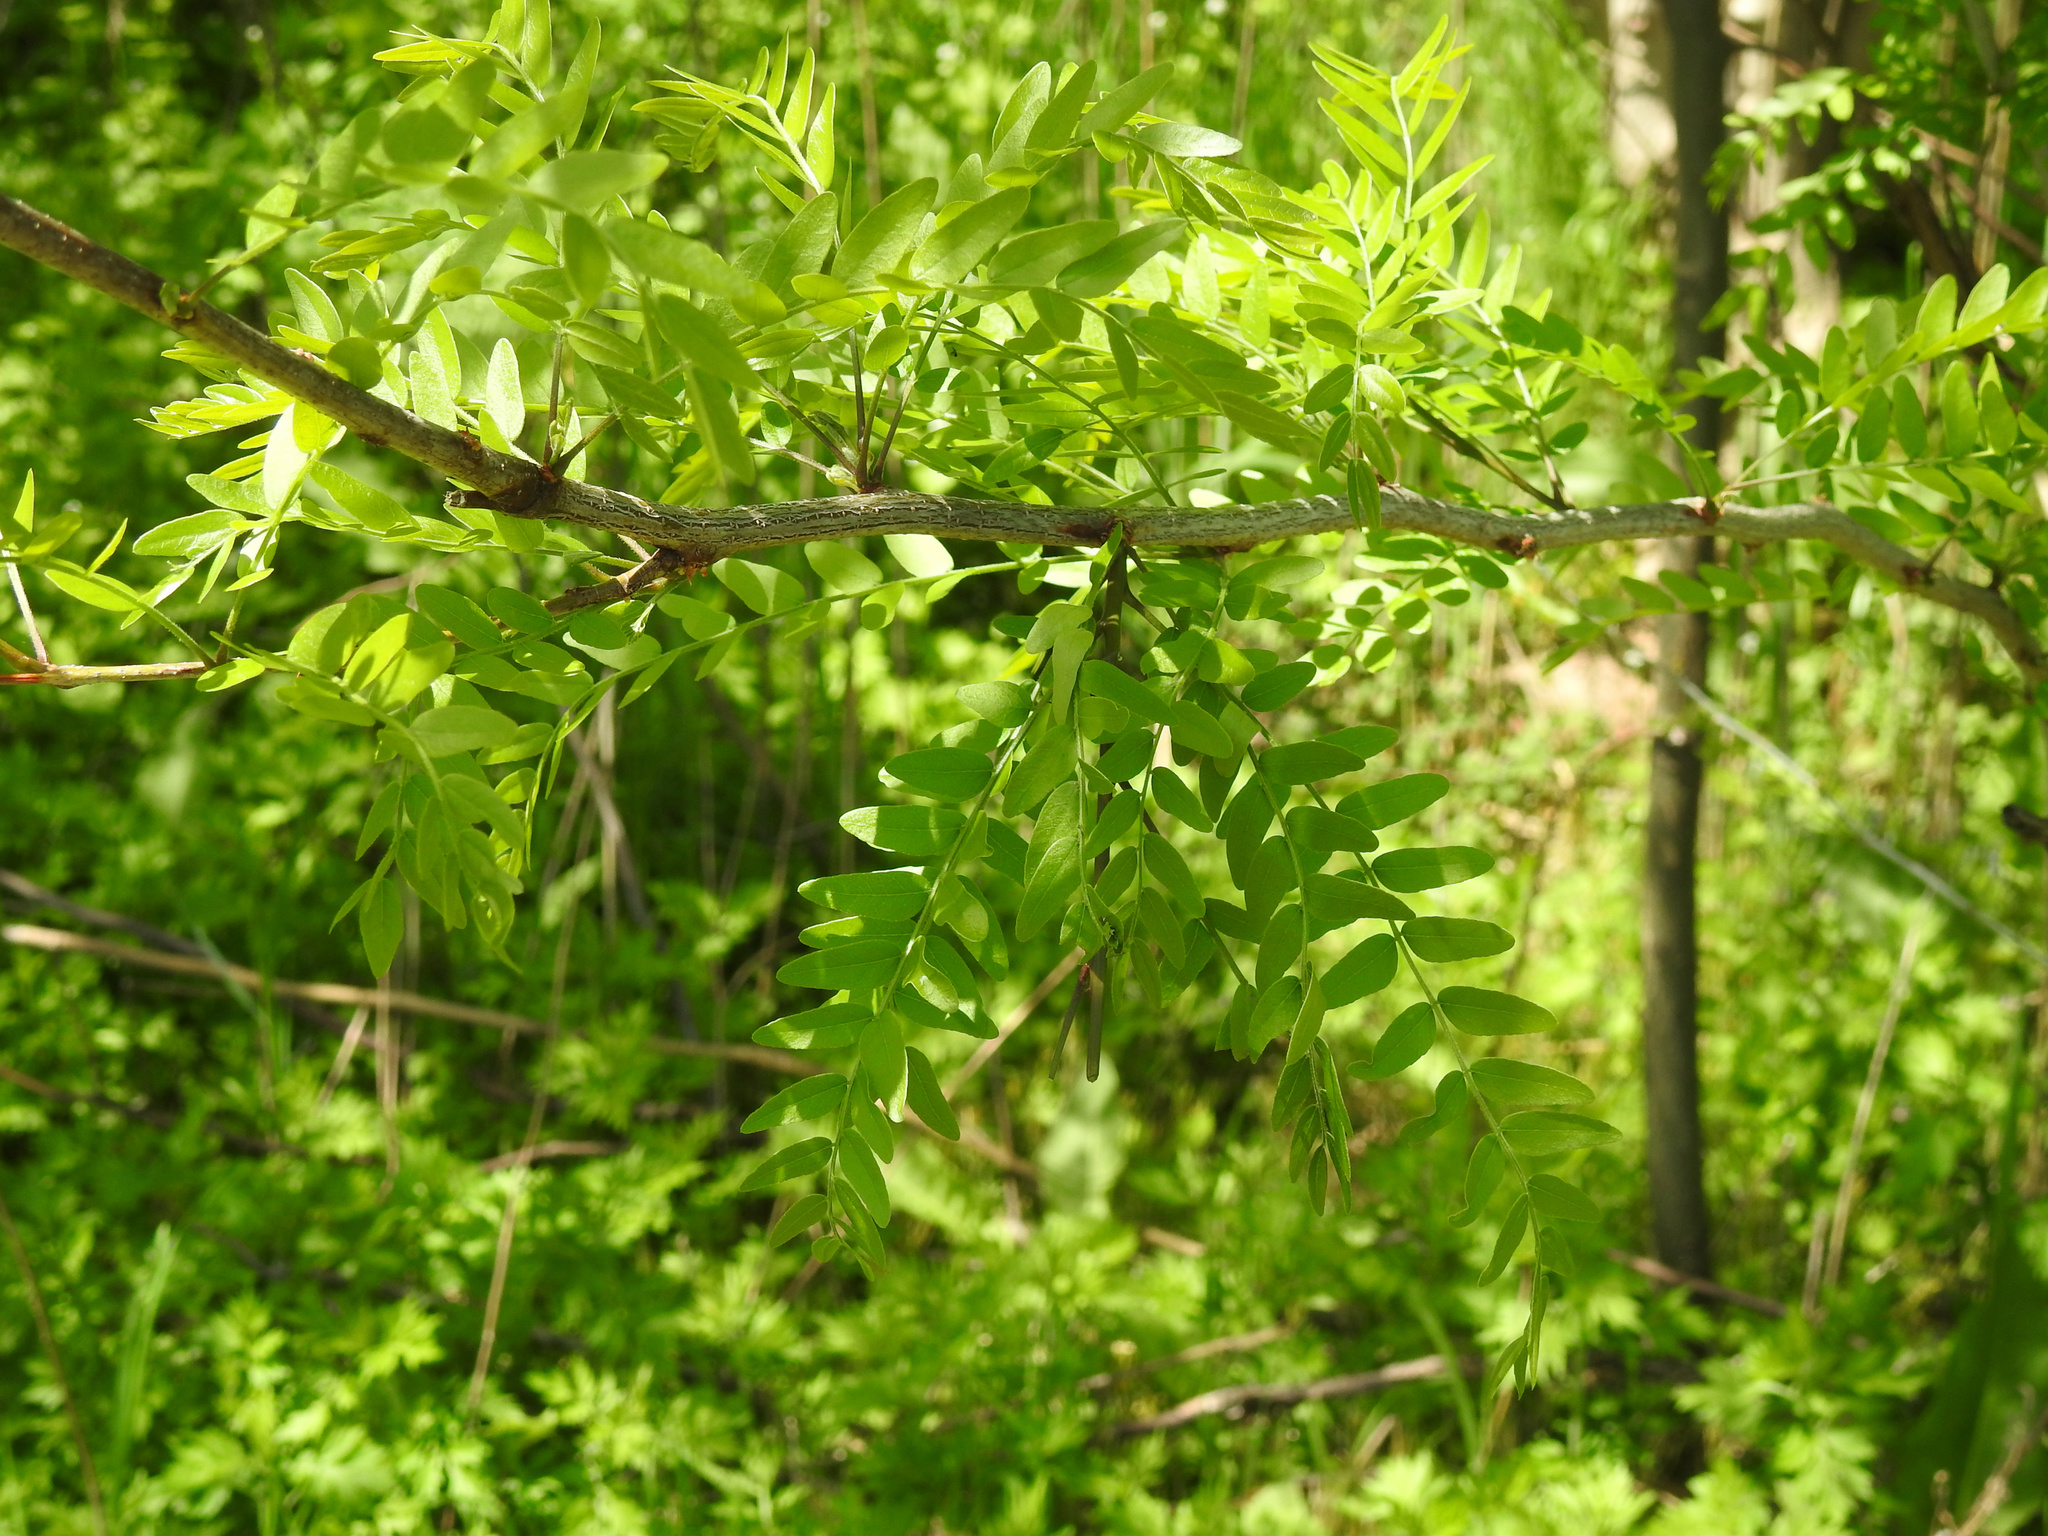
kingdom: Plantae
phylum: Tracheophyta
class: Magnoliopsida
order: Fabales
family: Fabaceae
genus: Gleditsia
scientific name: Gleditsia triacanthos
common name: Common honeylocust
